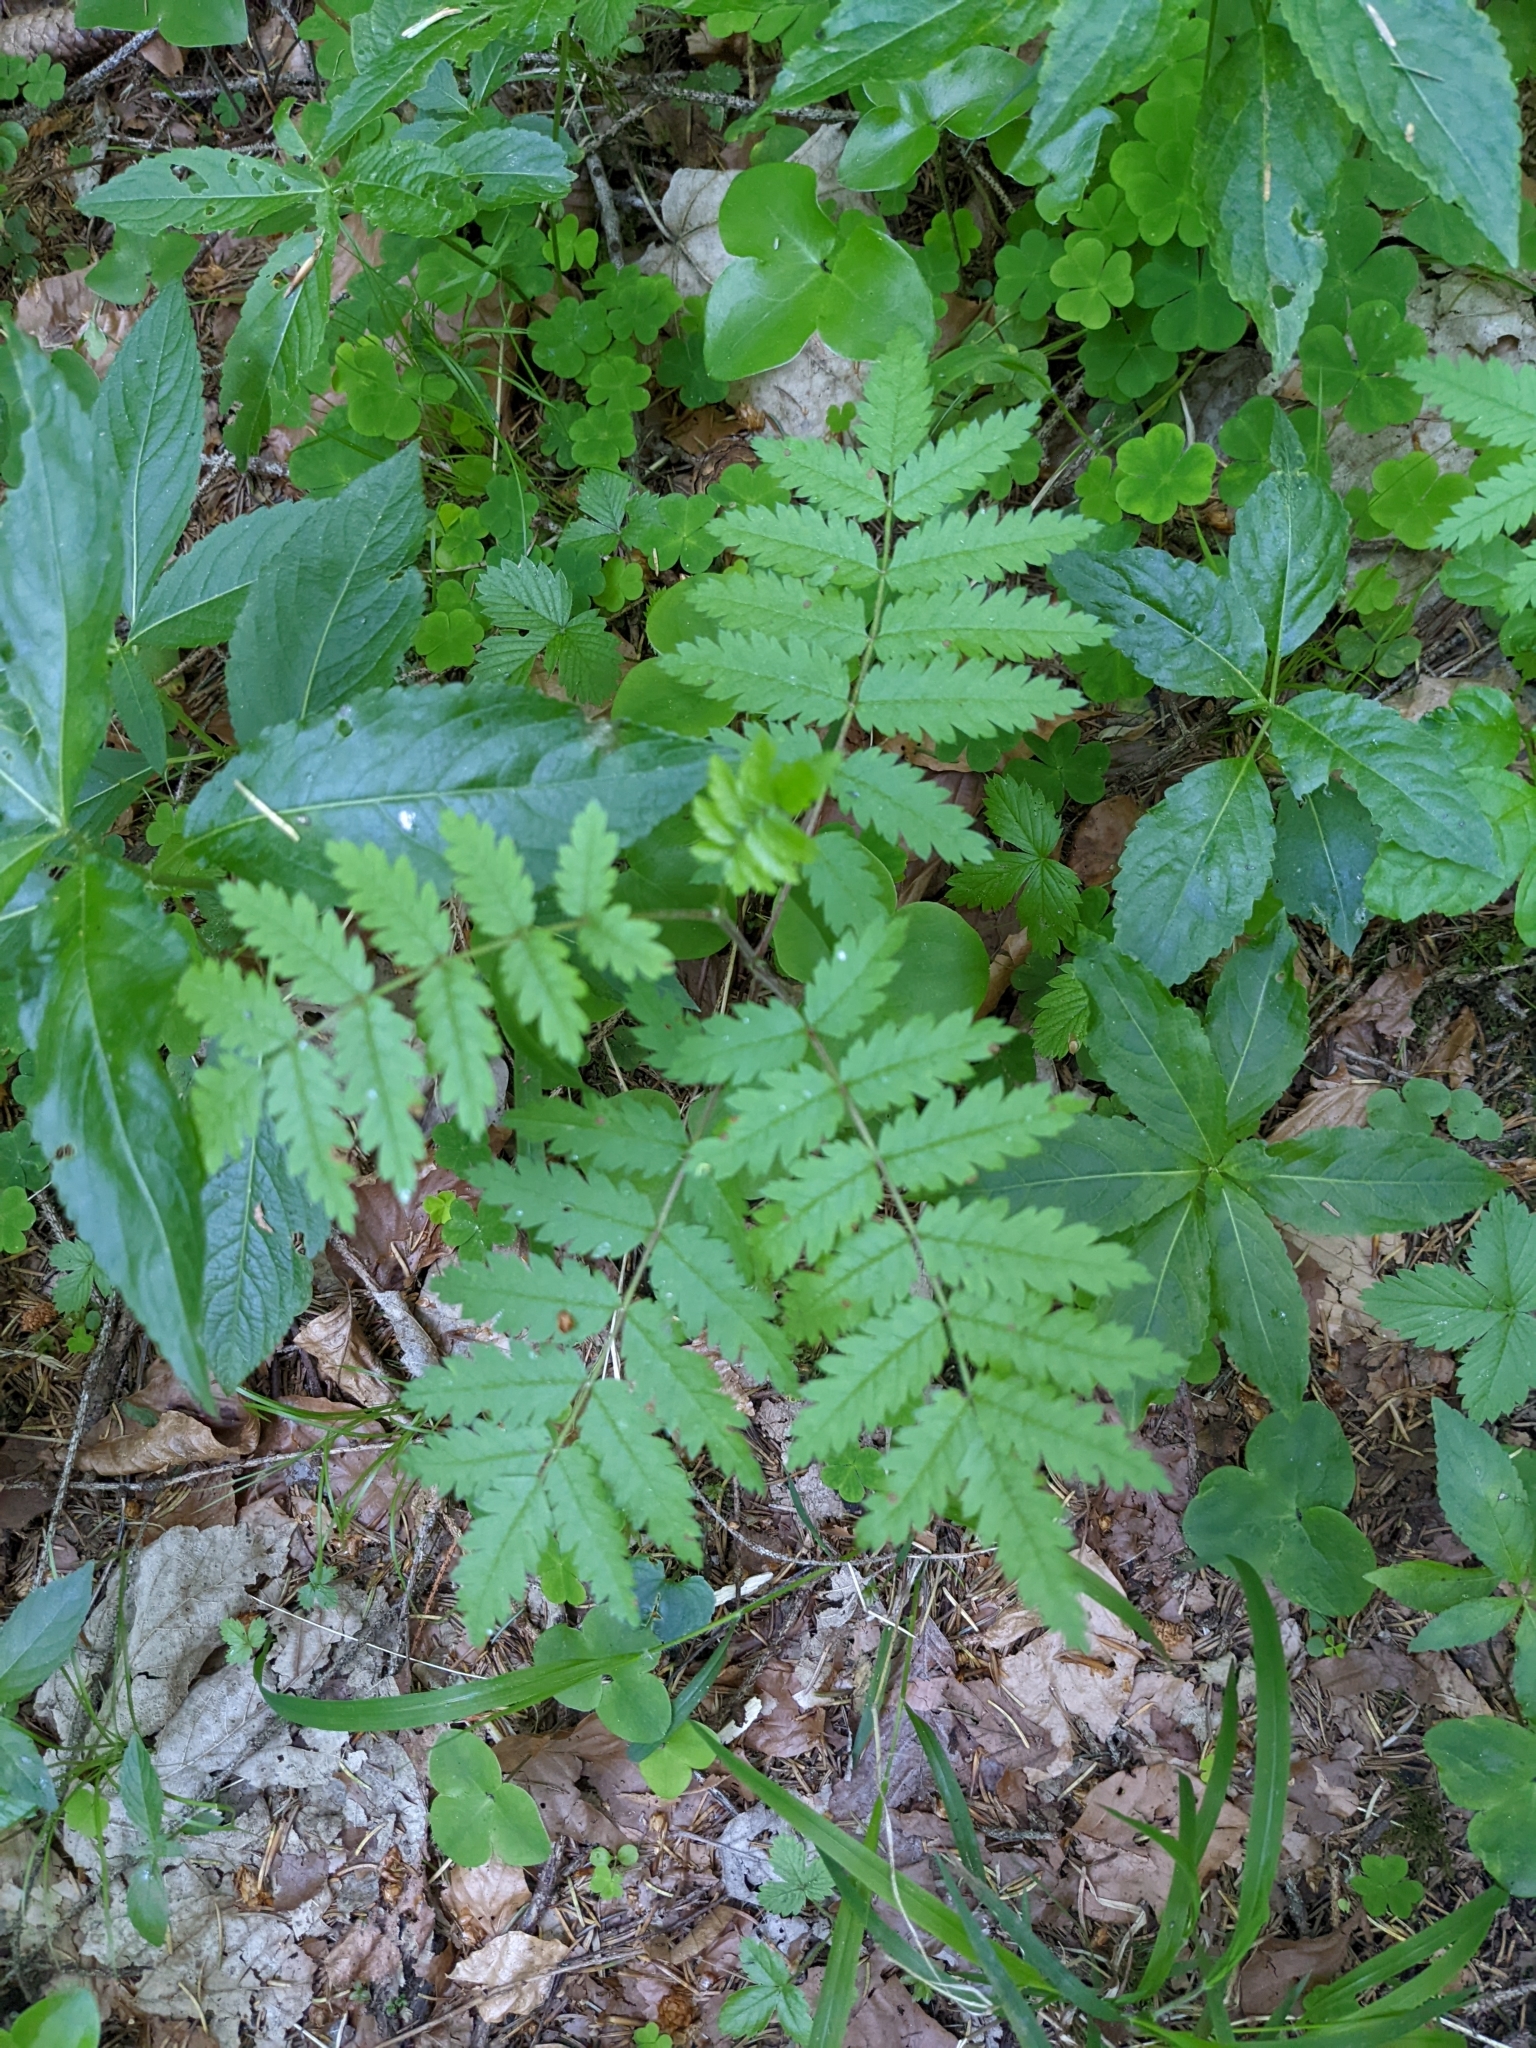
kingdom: Plantae
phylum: Tracheophyta
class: Magnoliopsida
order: Rosales
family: Rosaceae
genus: Sorbus
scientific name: Sorbus aucuparia
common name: Rowan
